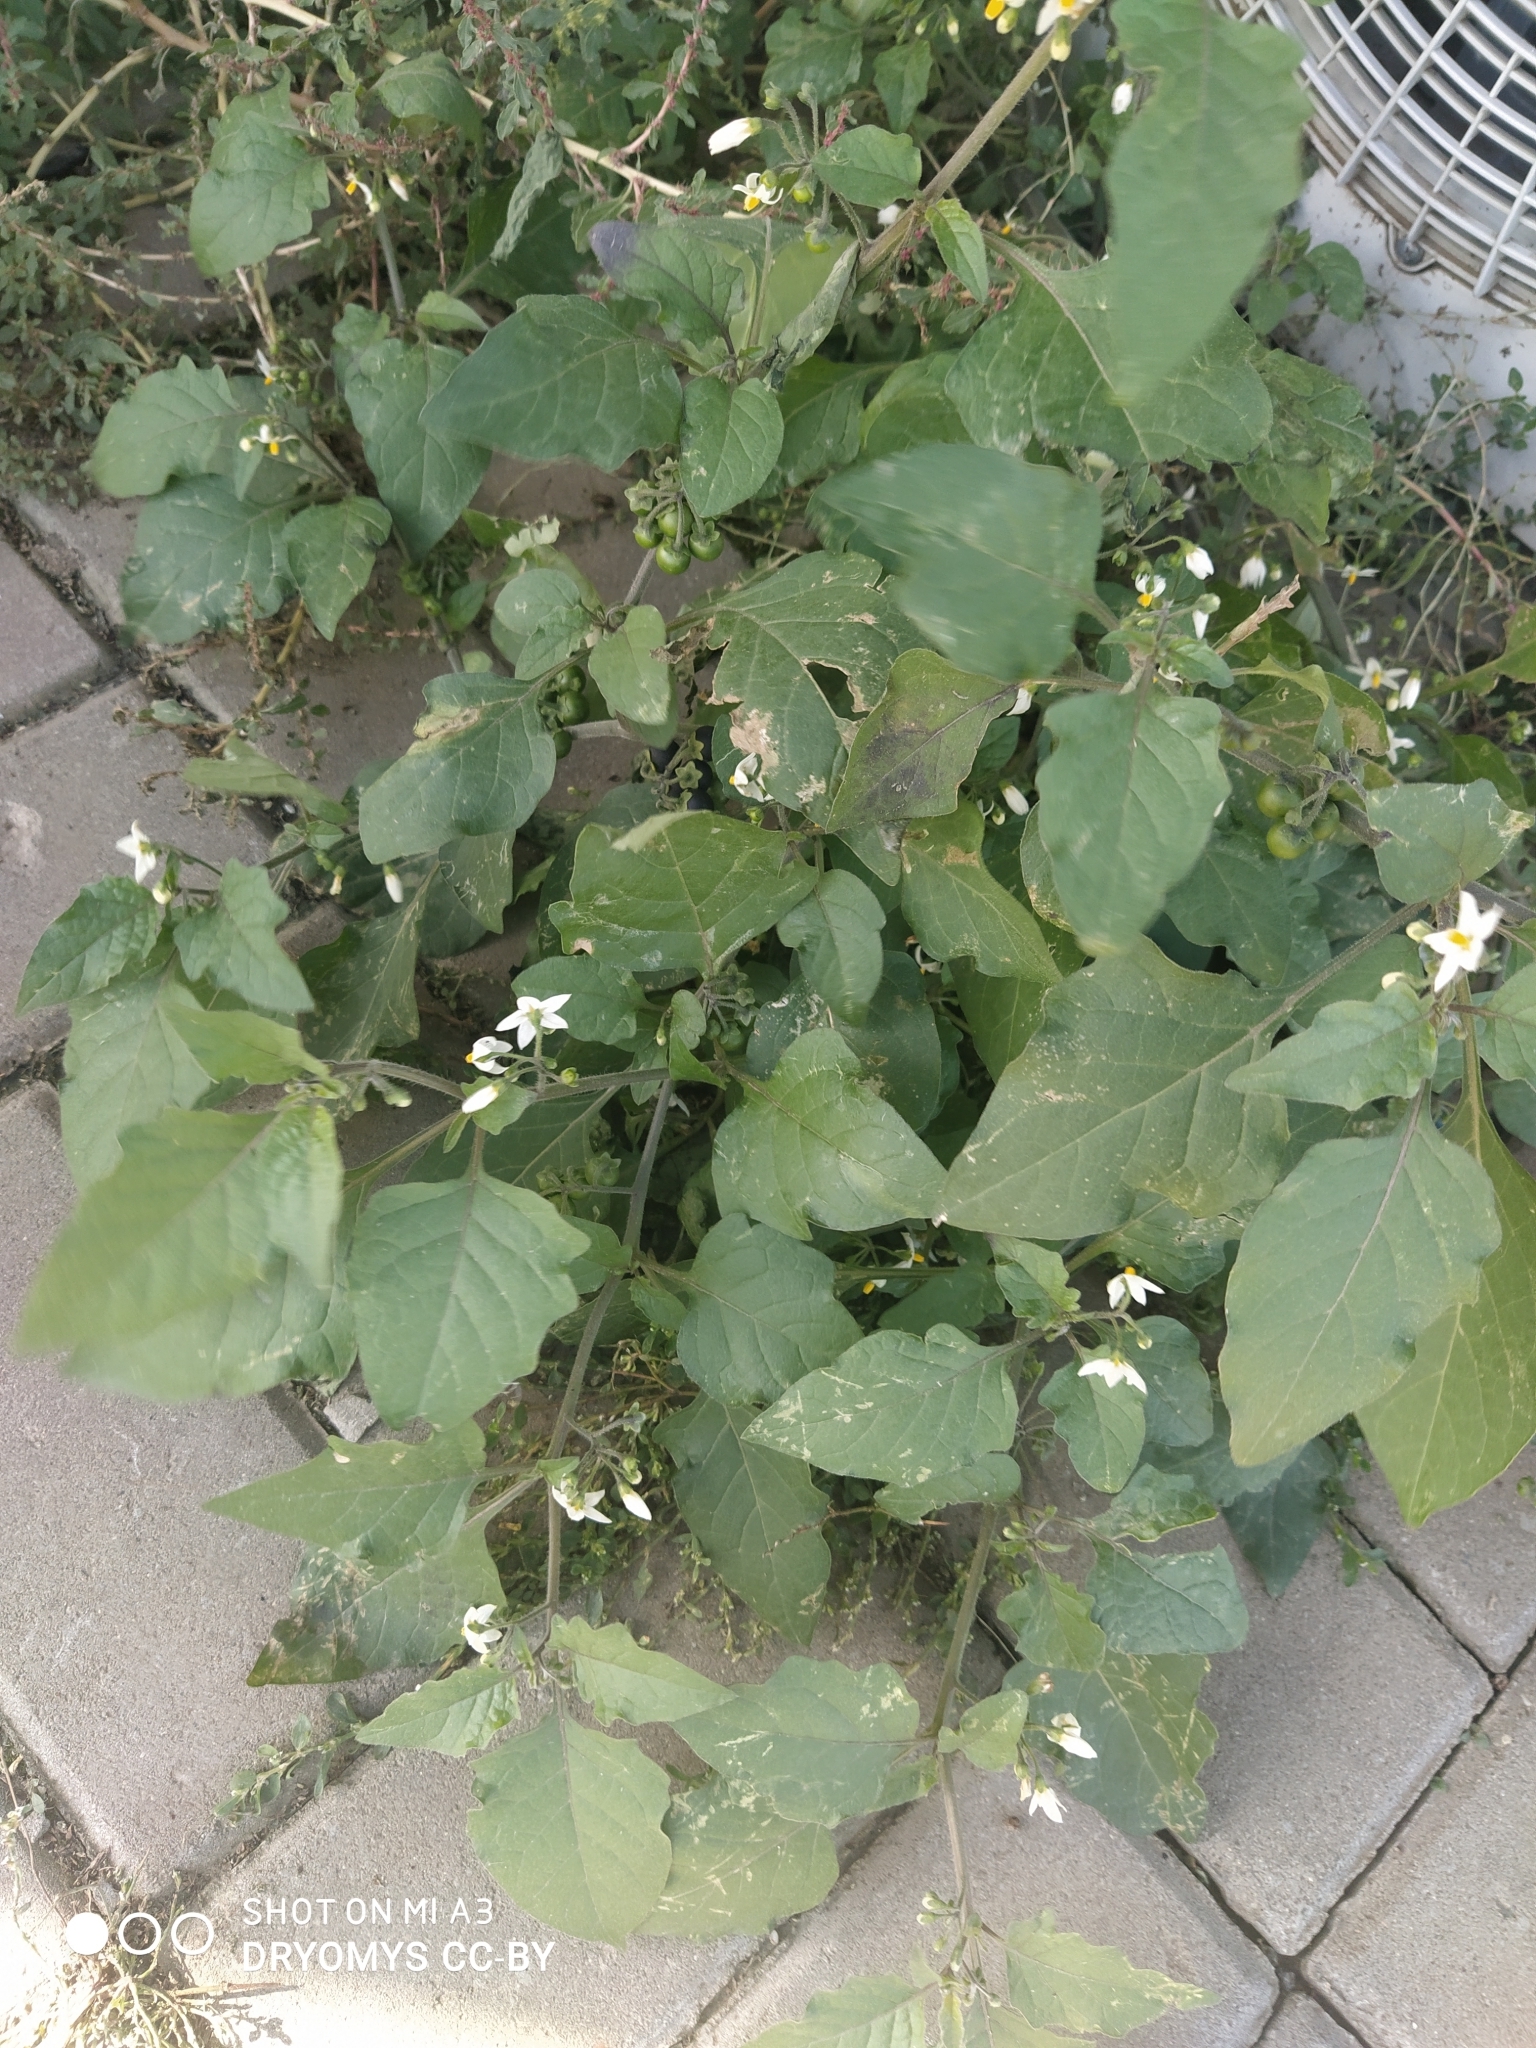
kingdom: Plantae
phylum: Tracheophyta
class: Magnoliopsida
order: Solanales
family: Solanaceae
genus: Solanum
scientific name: Solanum nigrum
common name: Black nightshade
